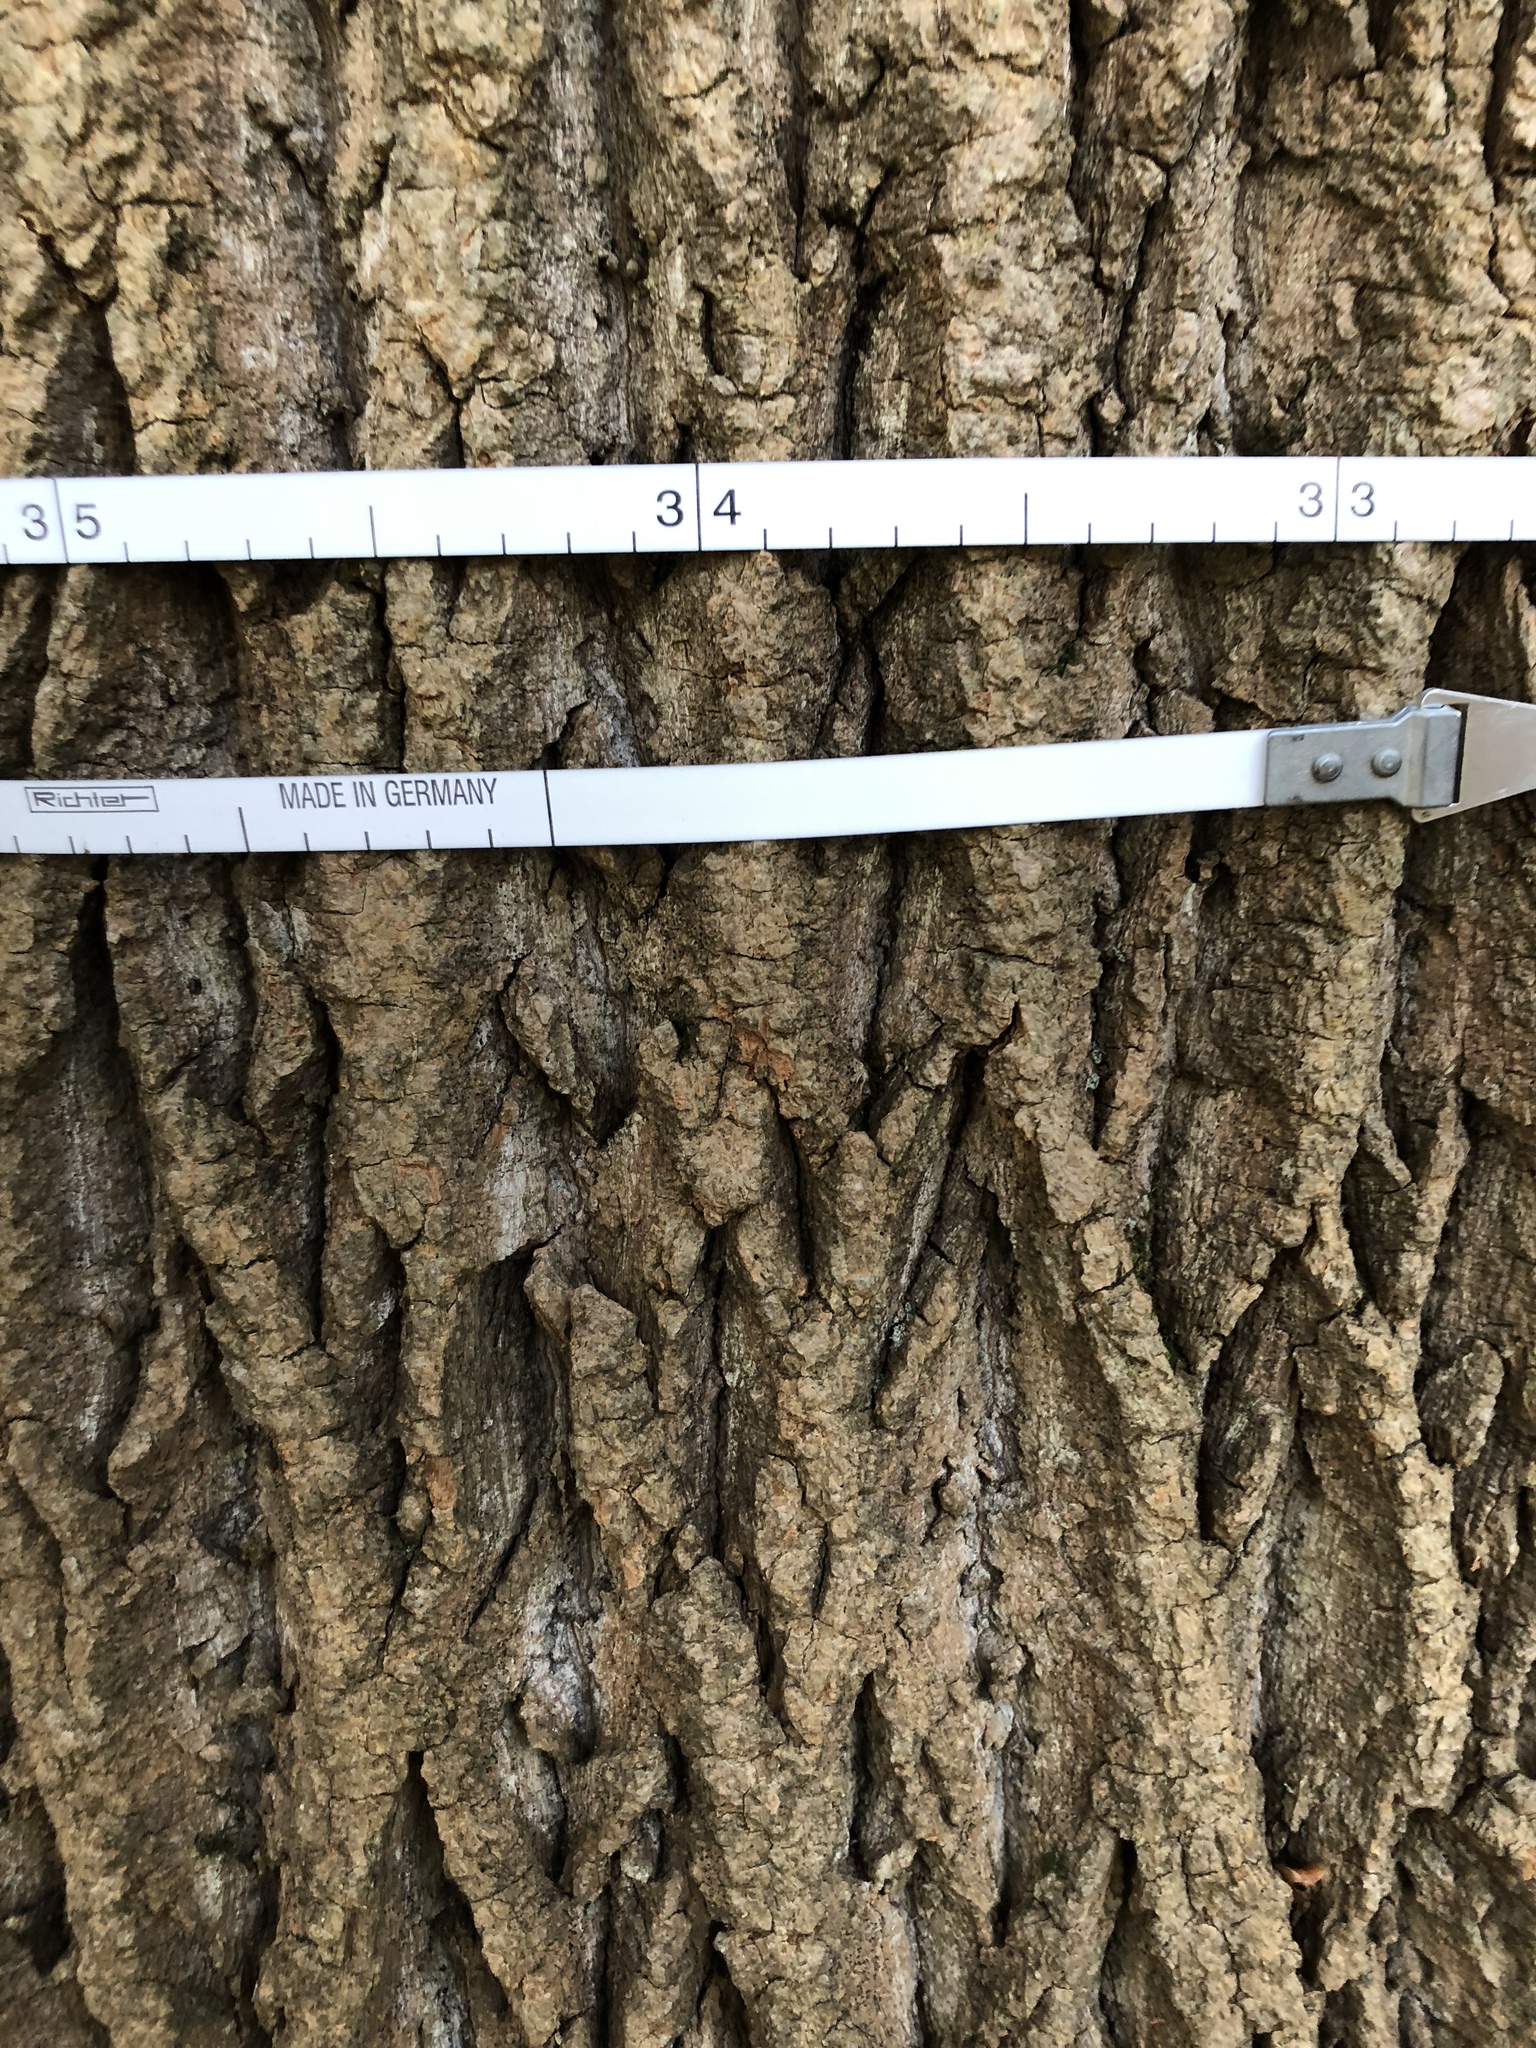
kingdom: Plantae
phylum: Tracheophyta
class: Magnoliopsida
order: Magnoliales
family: Magnoliaceae
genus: Liriodendron
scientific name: Liriodendron tulipifera
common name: Tulip tree
